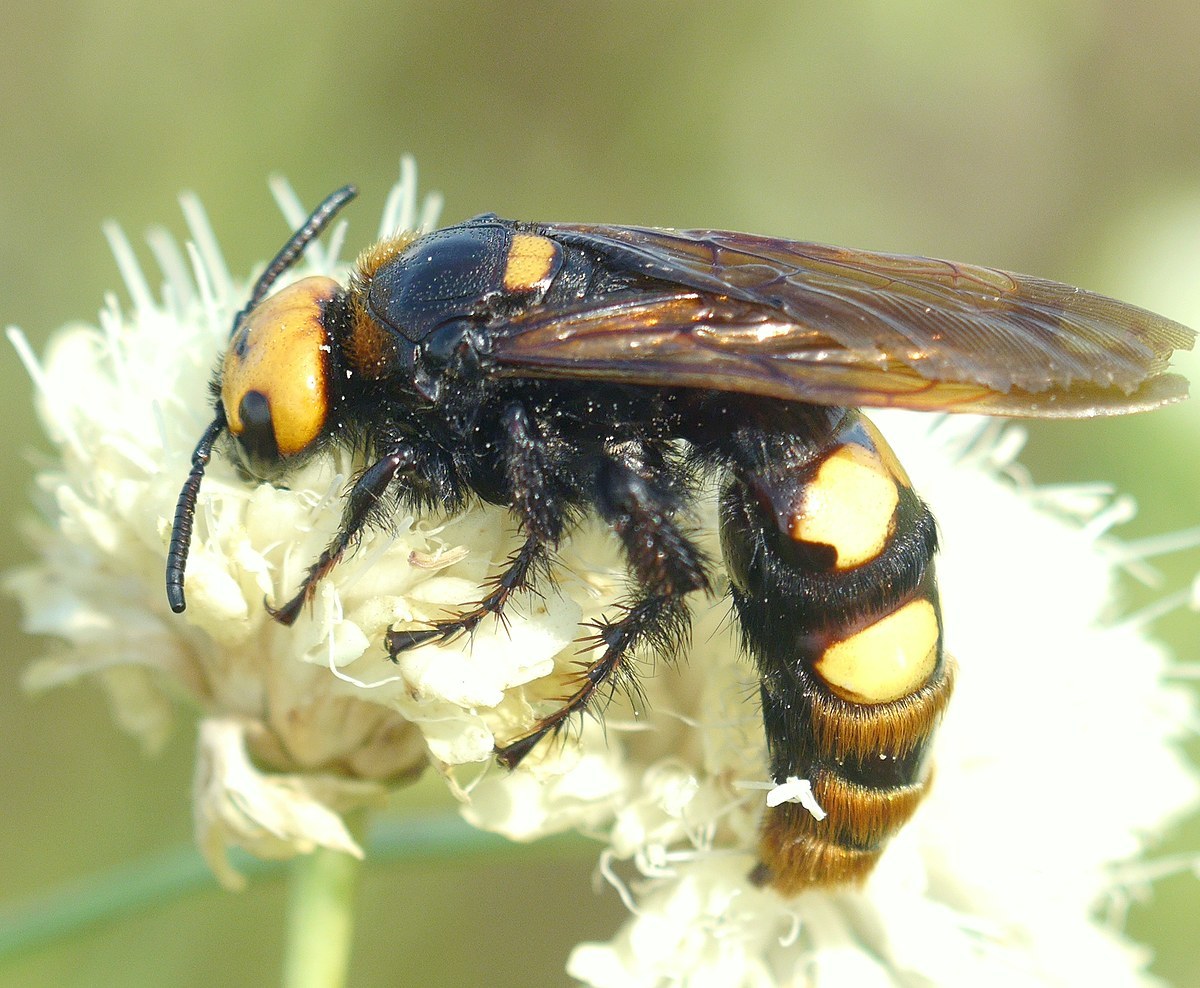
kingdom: Animalia
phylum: Arthropoda
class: Insecta
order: Hymenoptera
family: Scoliidae
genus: Megascolia
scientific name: Megascolia maculata
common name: Mammoth wasp
